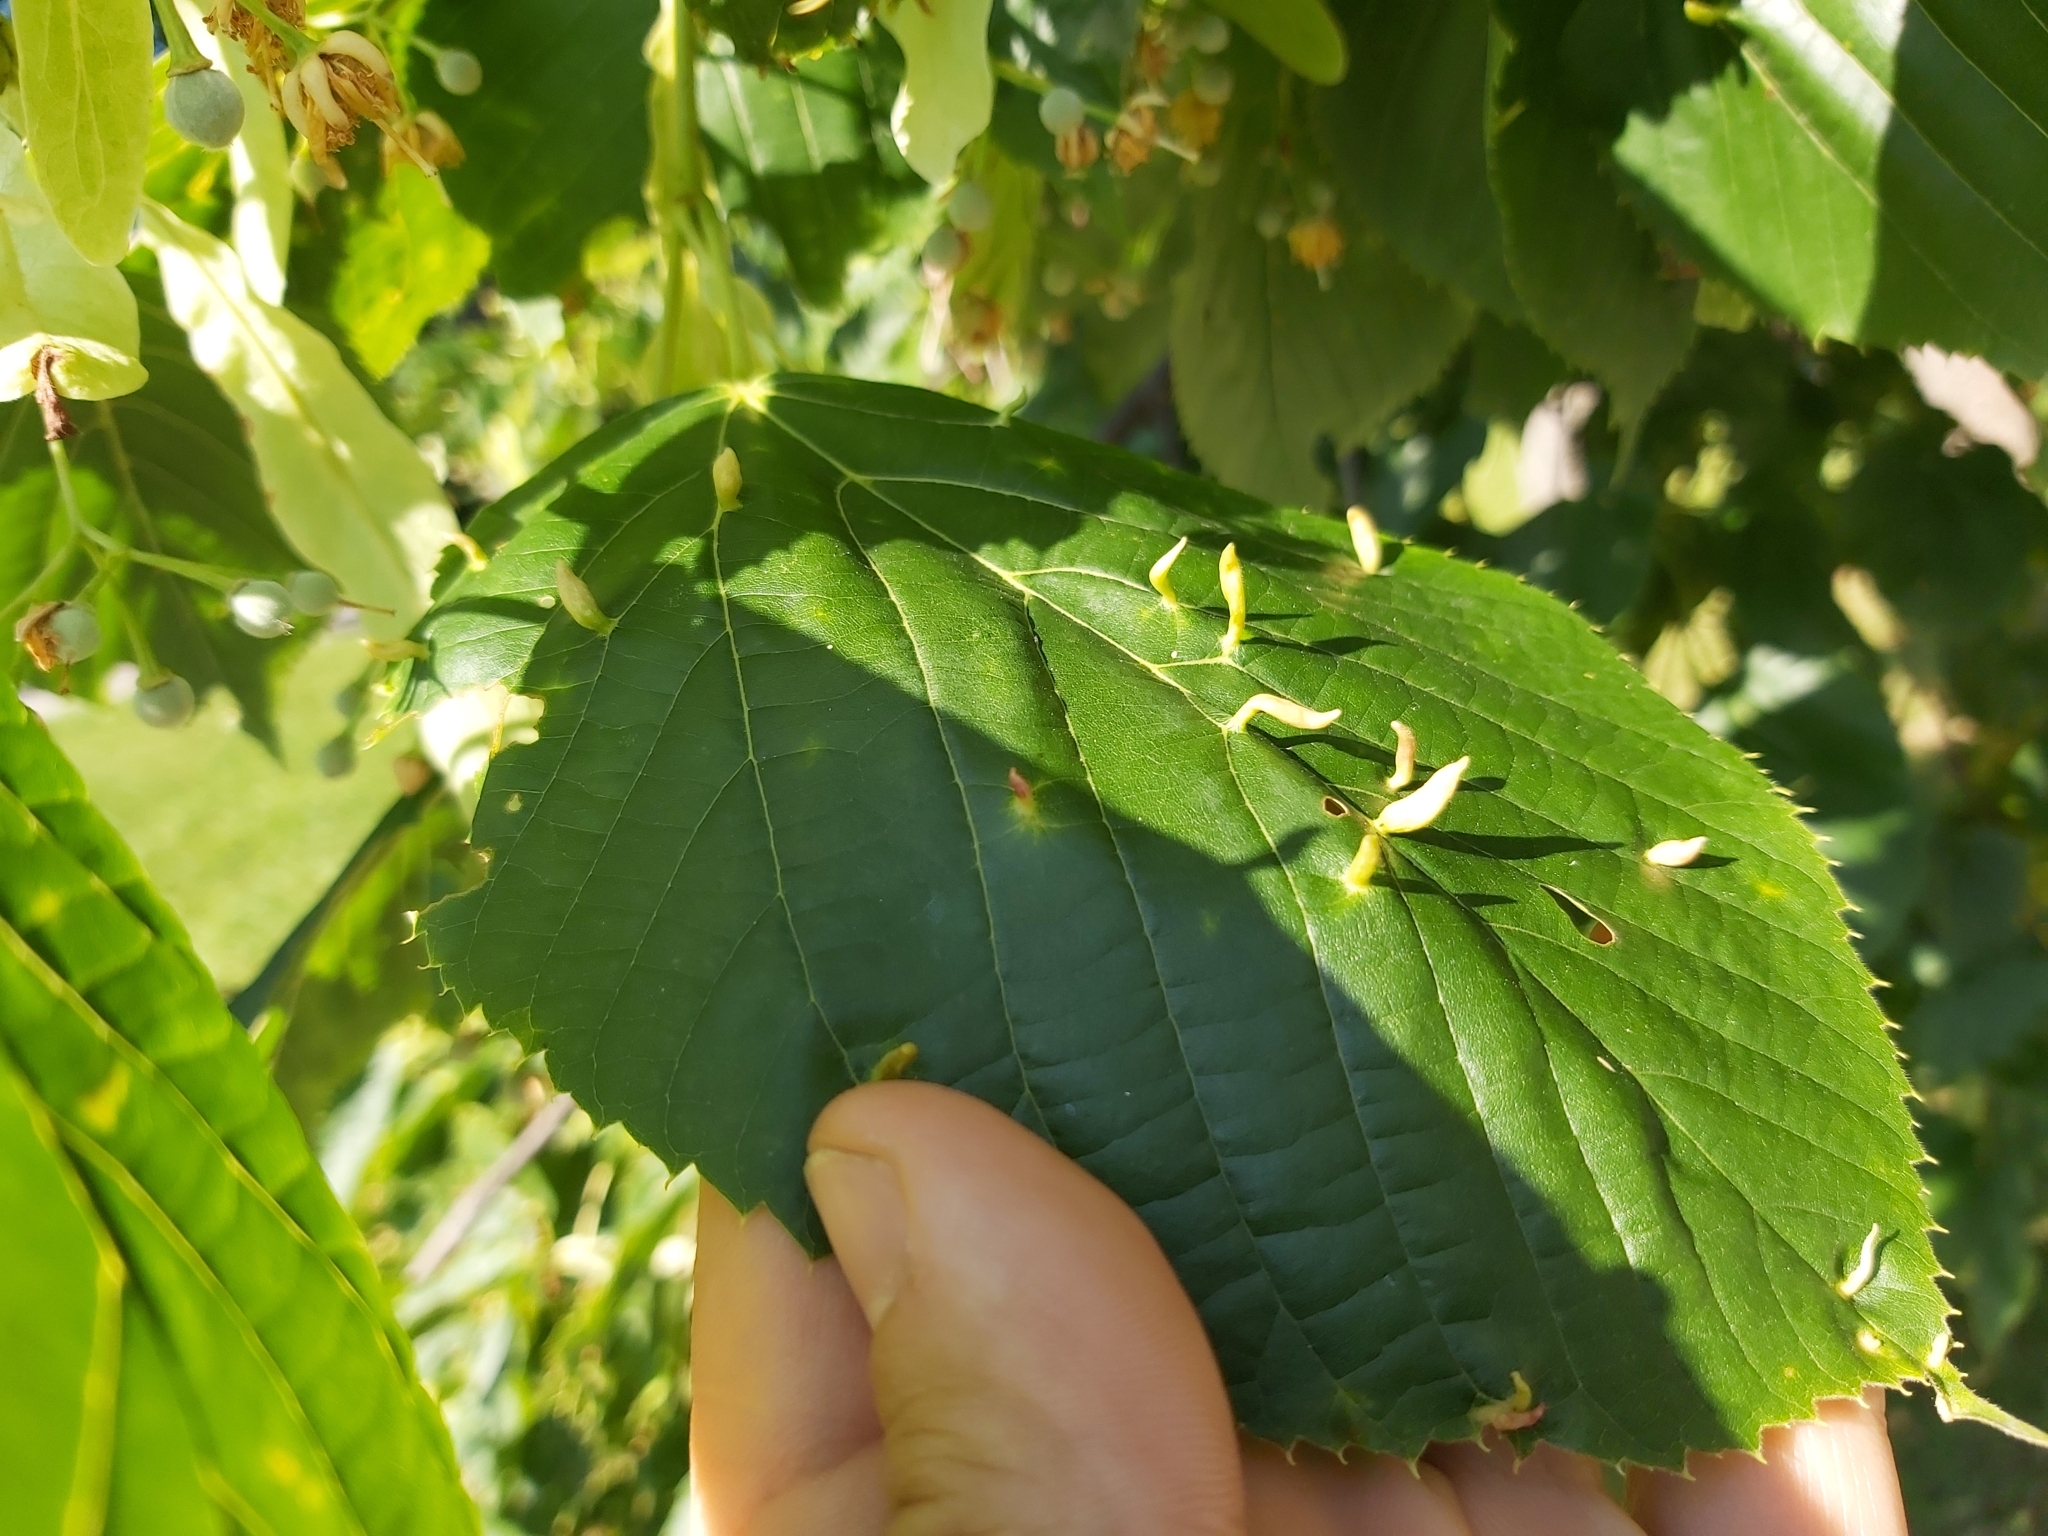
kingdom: Animalia
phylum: Arthropoda
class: Arachnida
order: Trombidiformes
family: Eriophyidae
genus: Eriophyes
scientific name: Eriophyes tiliae
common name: Red nail gall mite
